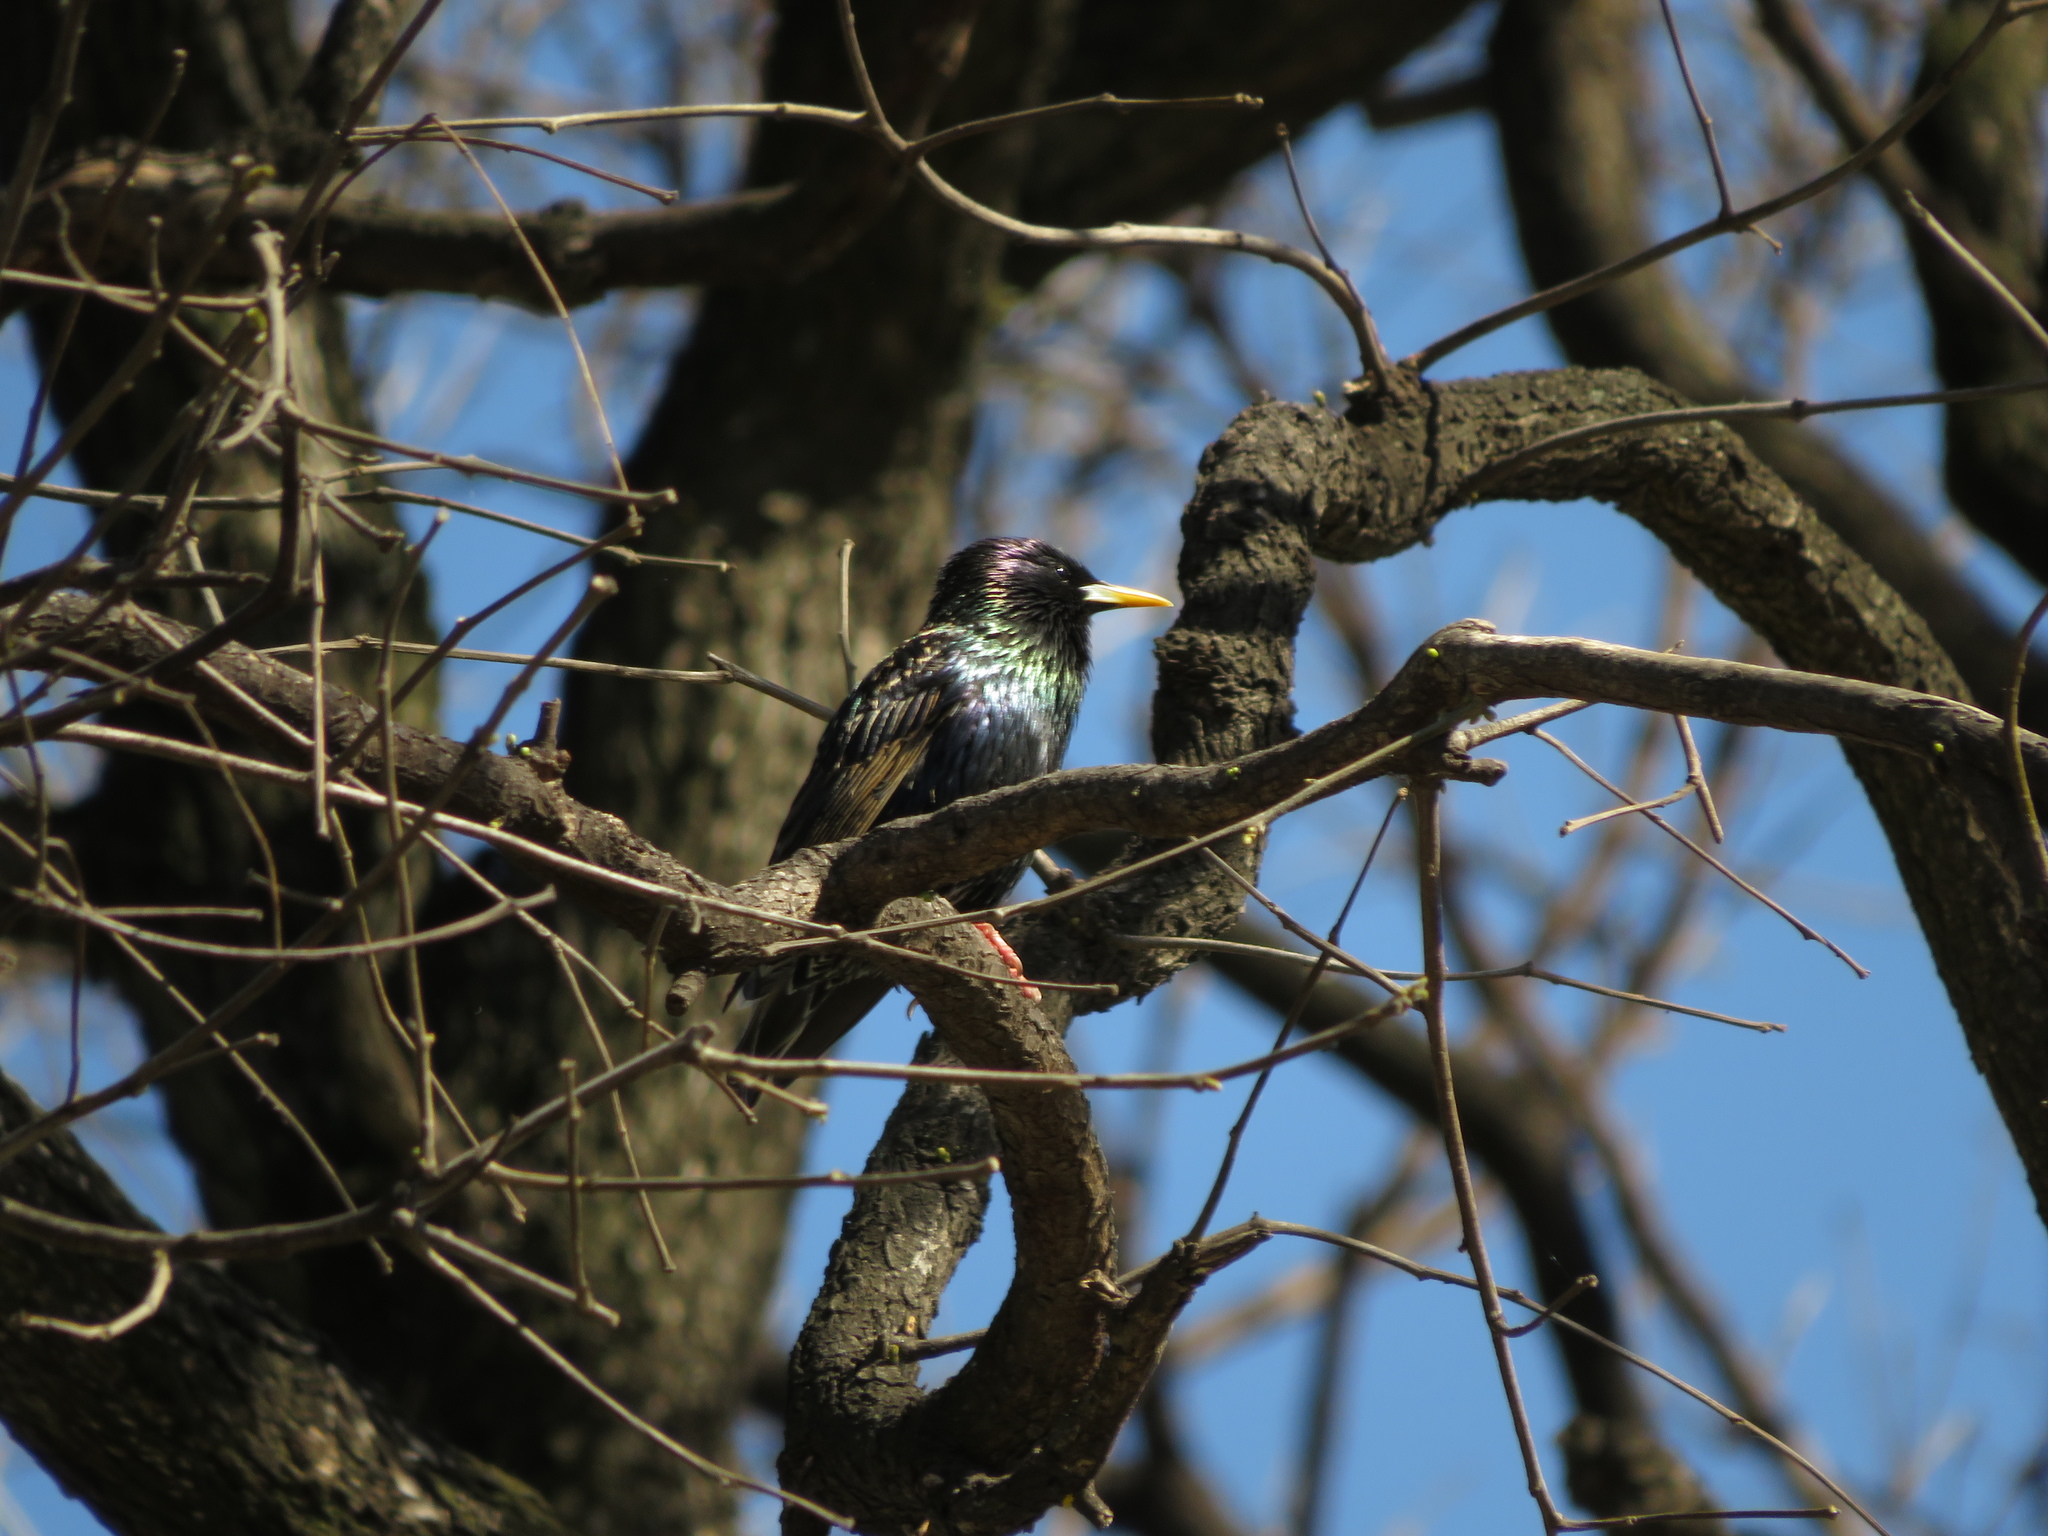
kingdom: Animalia
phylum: Chordata
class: Aves
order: Passeriformes
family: Sturnidae
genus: Sturnus
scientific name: Sturnus vulgaris
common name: Common starling
